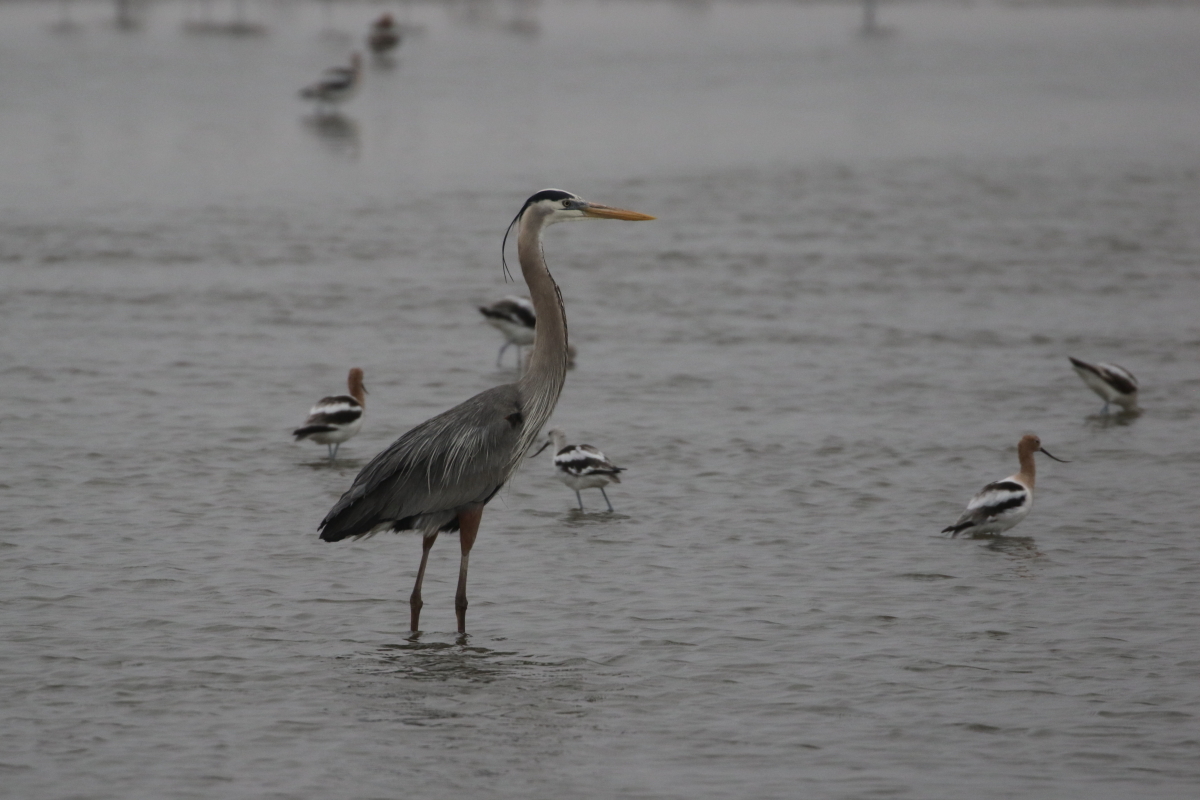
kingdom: Animalia
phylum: Chordata
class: Aves
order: Pelecaniformes
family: Ardeidae
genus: Ardea
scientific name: Ardea herodias
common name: Great blue heron
